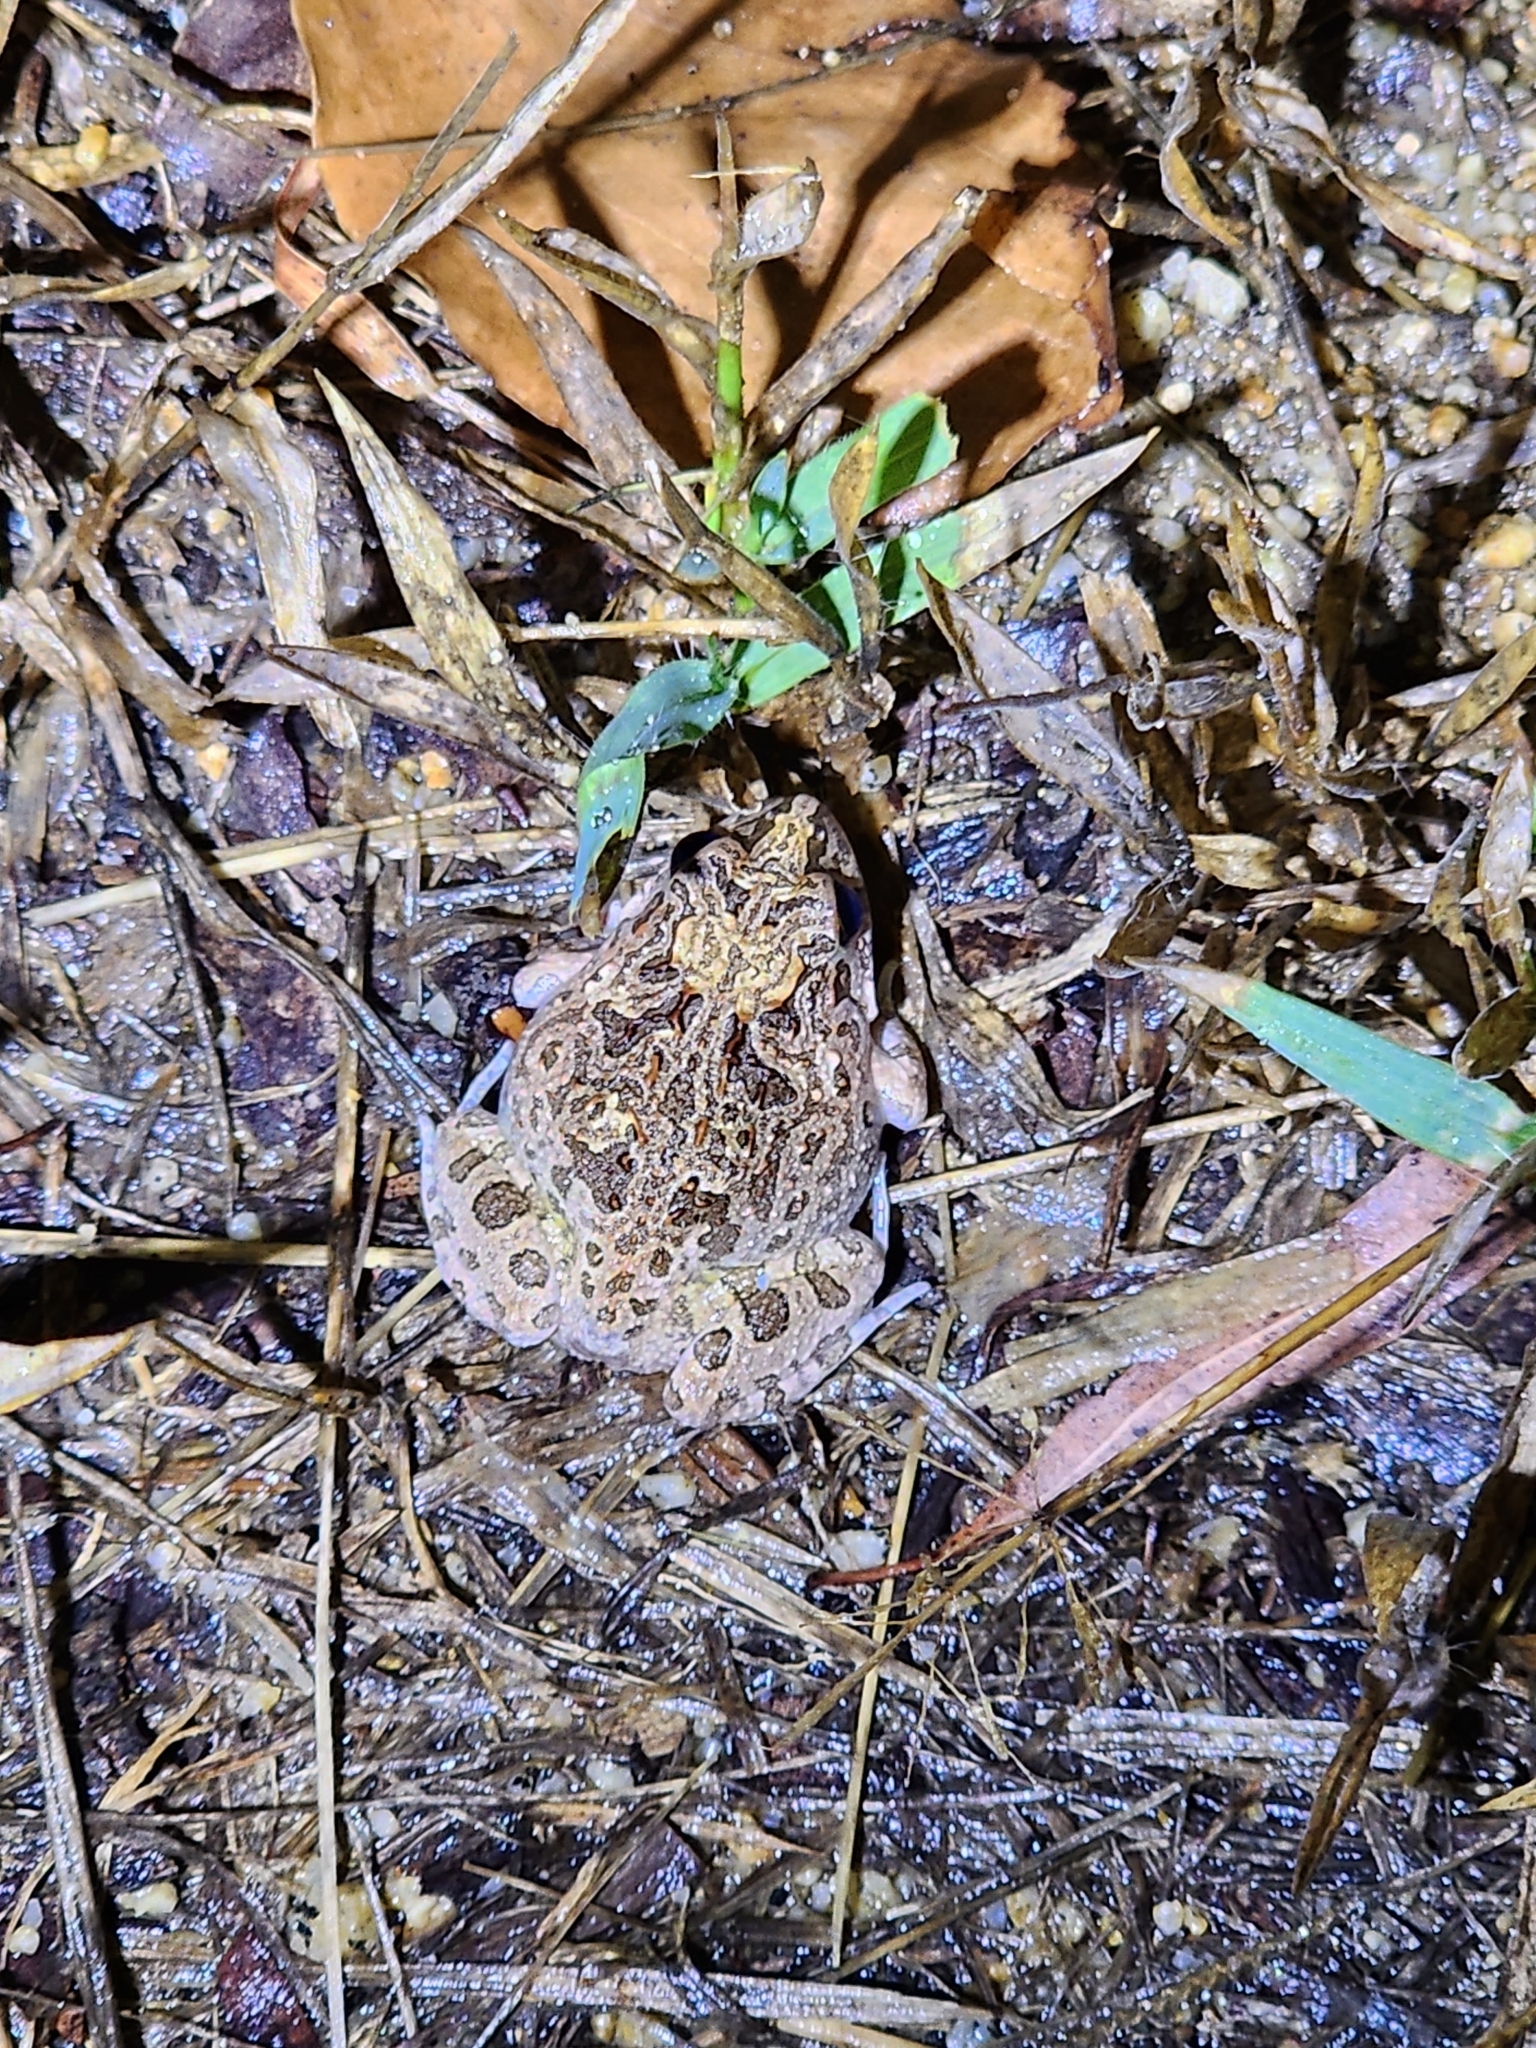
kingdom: Animalia
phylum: Chordata
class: Amphibia
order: Anura
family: Limnodynastidae
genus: Platyplectrum
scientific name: Platyplectrum ornatum
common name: Ornate burrowing frog
